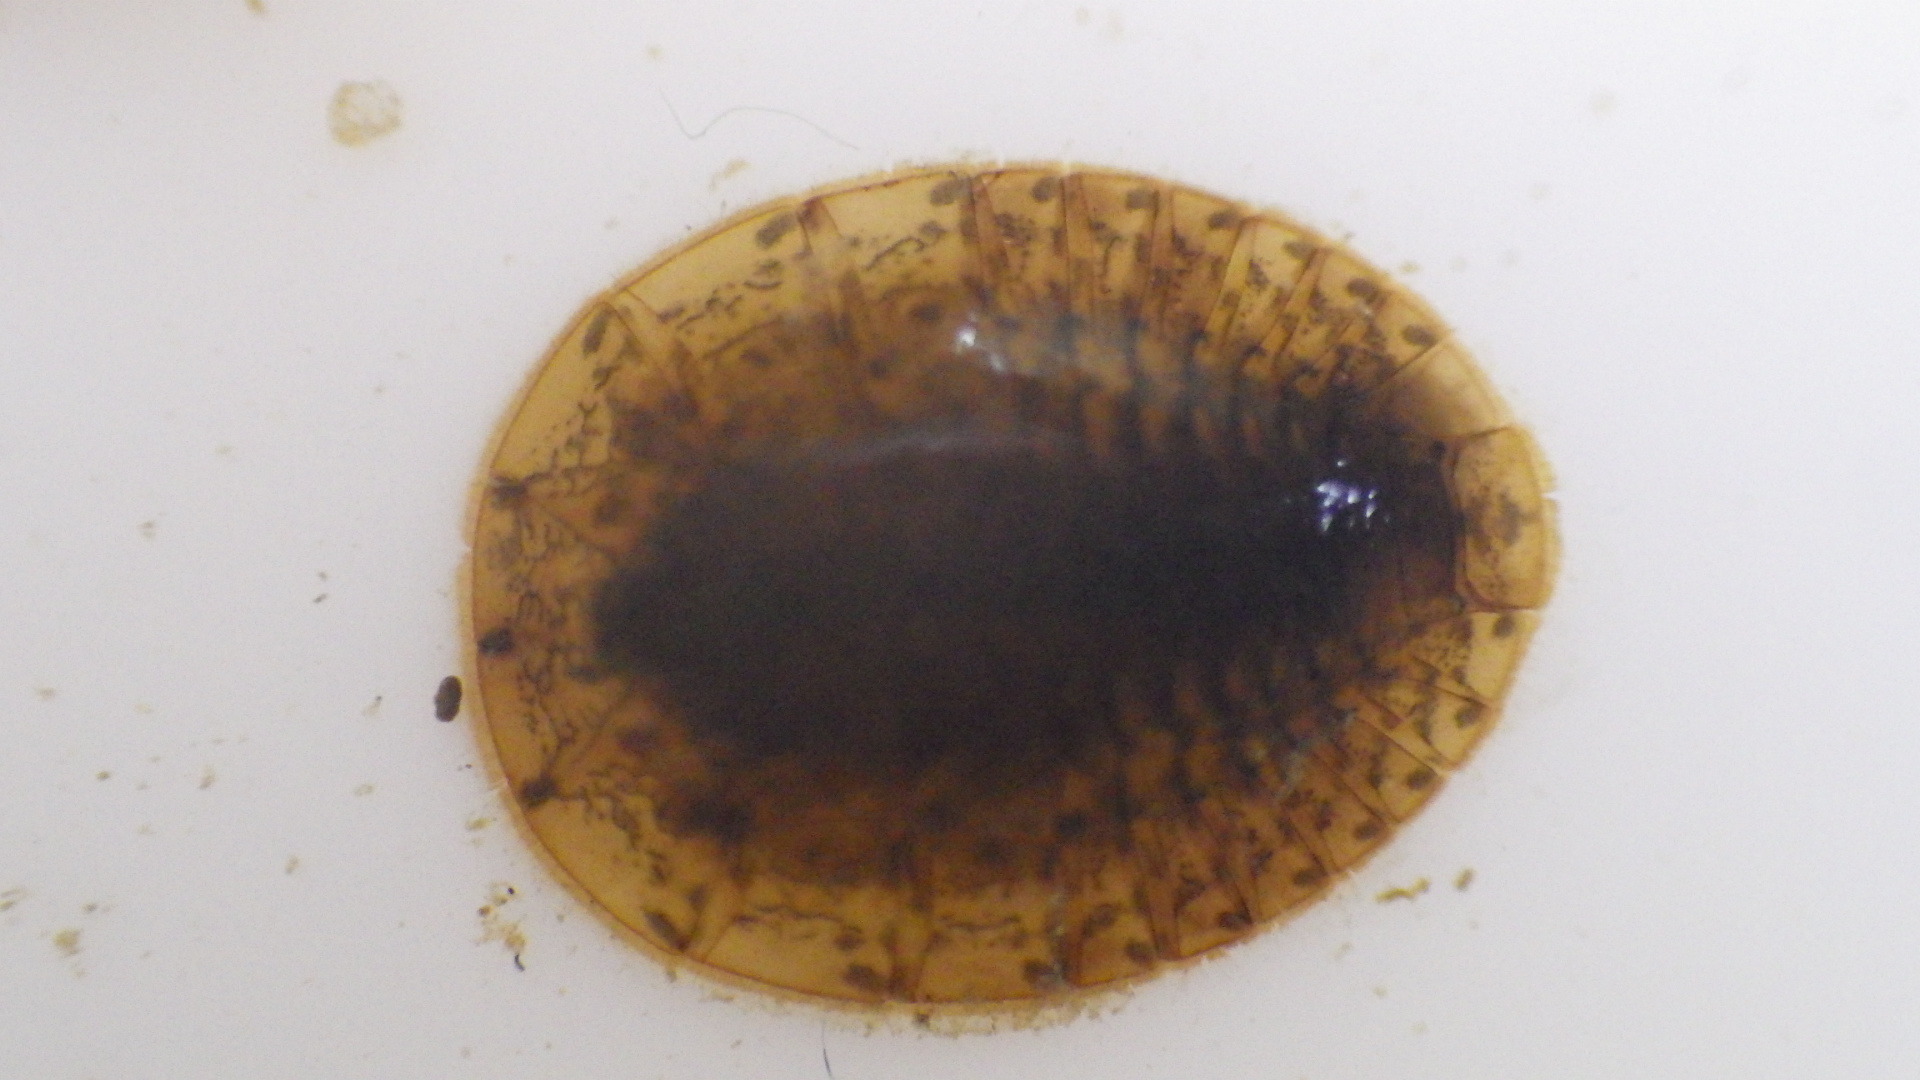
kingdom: Animalia
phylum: Arthropoda
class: Insecta
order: Coleoptera
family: Psephenidae
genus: Psephenus
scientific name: Psephenus herricki
